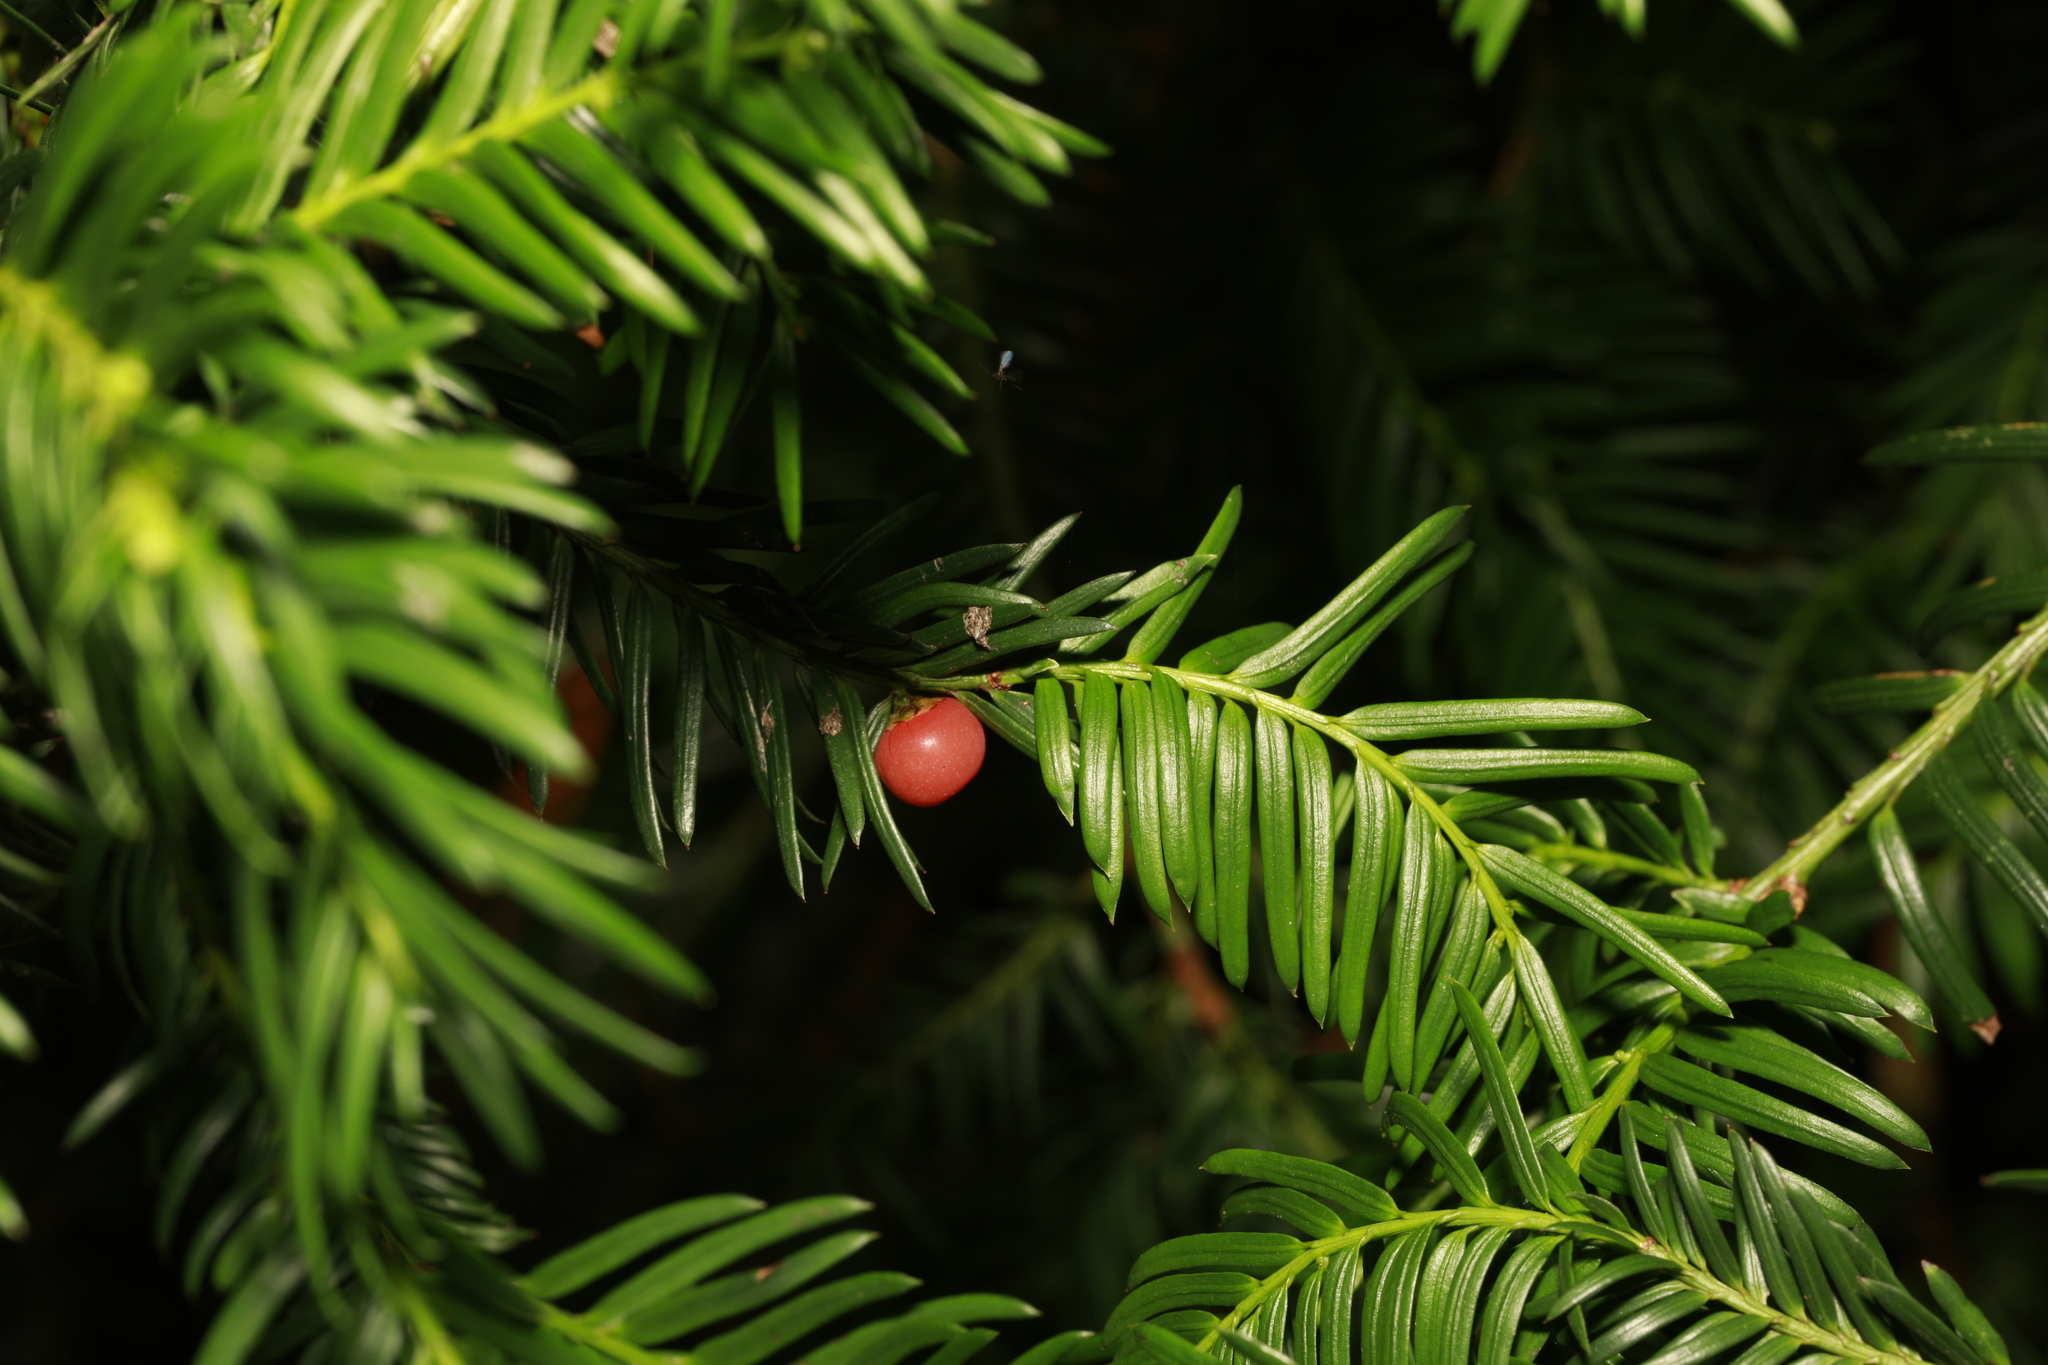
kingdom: Plantae
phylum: Tracheophyta
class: Pinopsida
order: Pinales
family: Taxaceae
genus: Taxus
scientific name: Taxus baccata
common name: Yew
